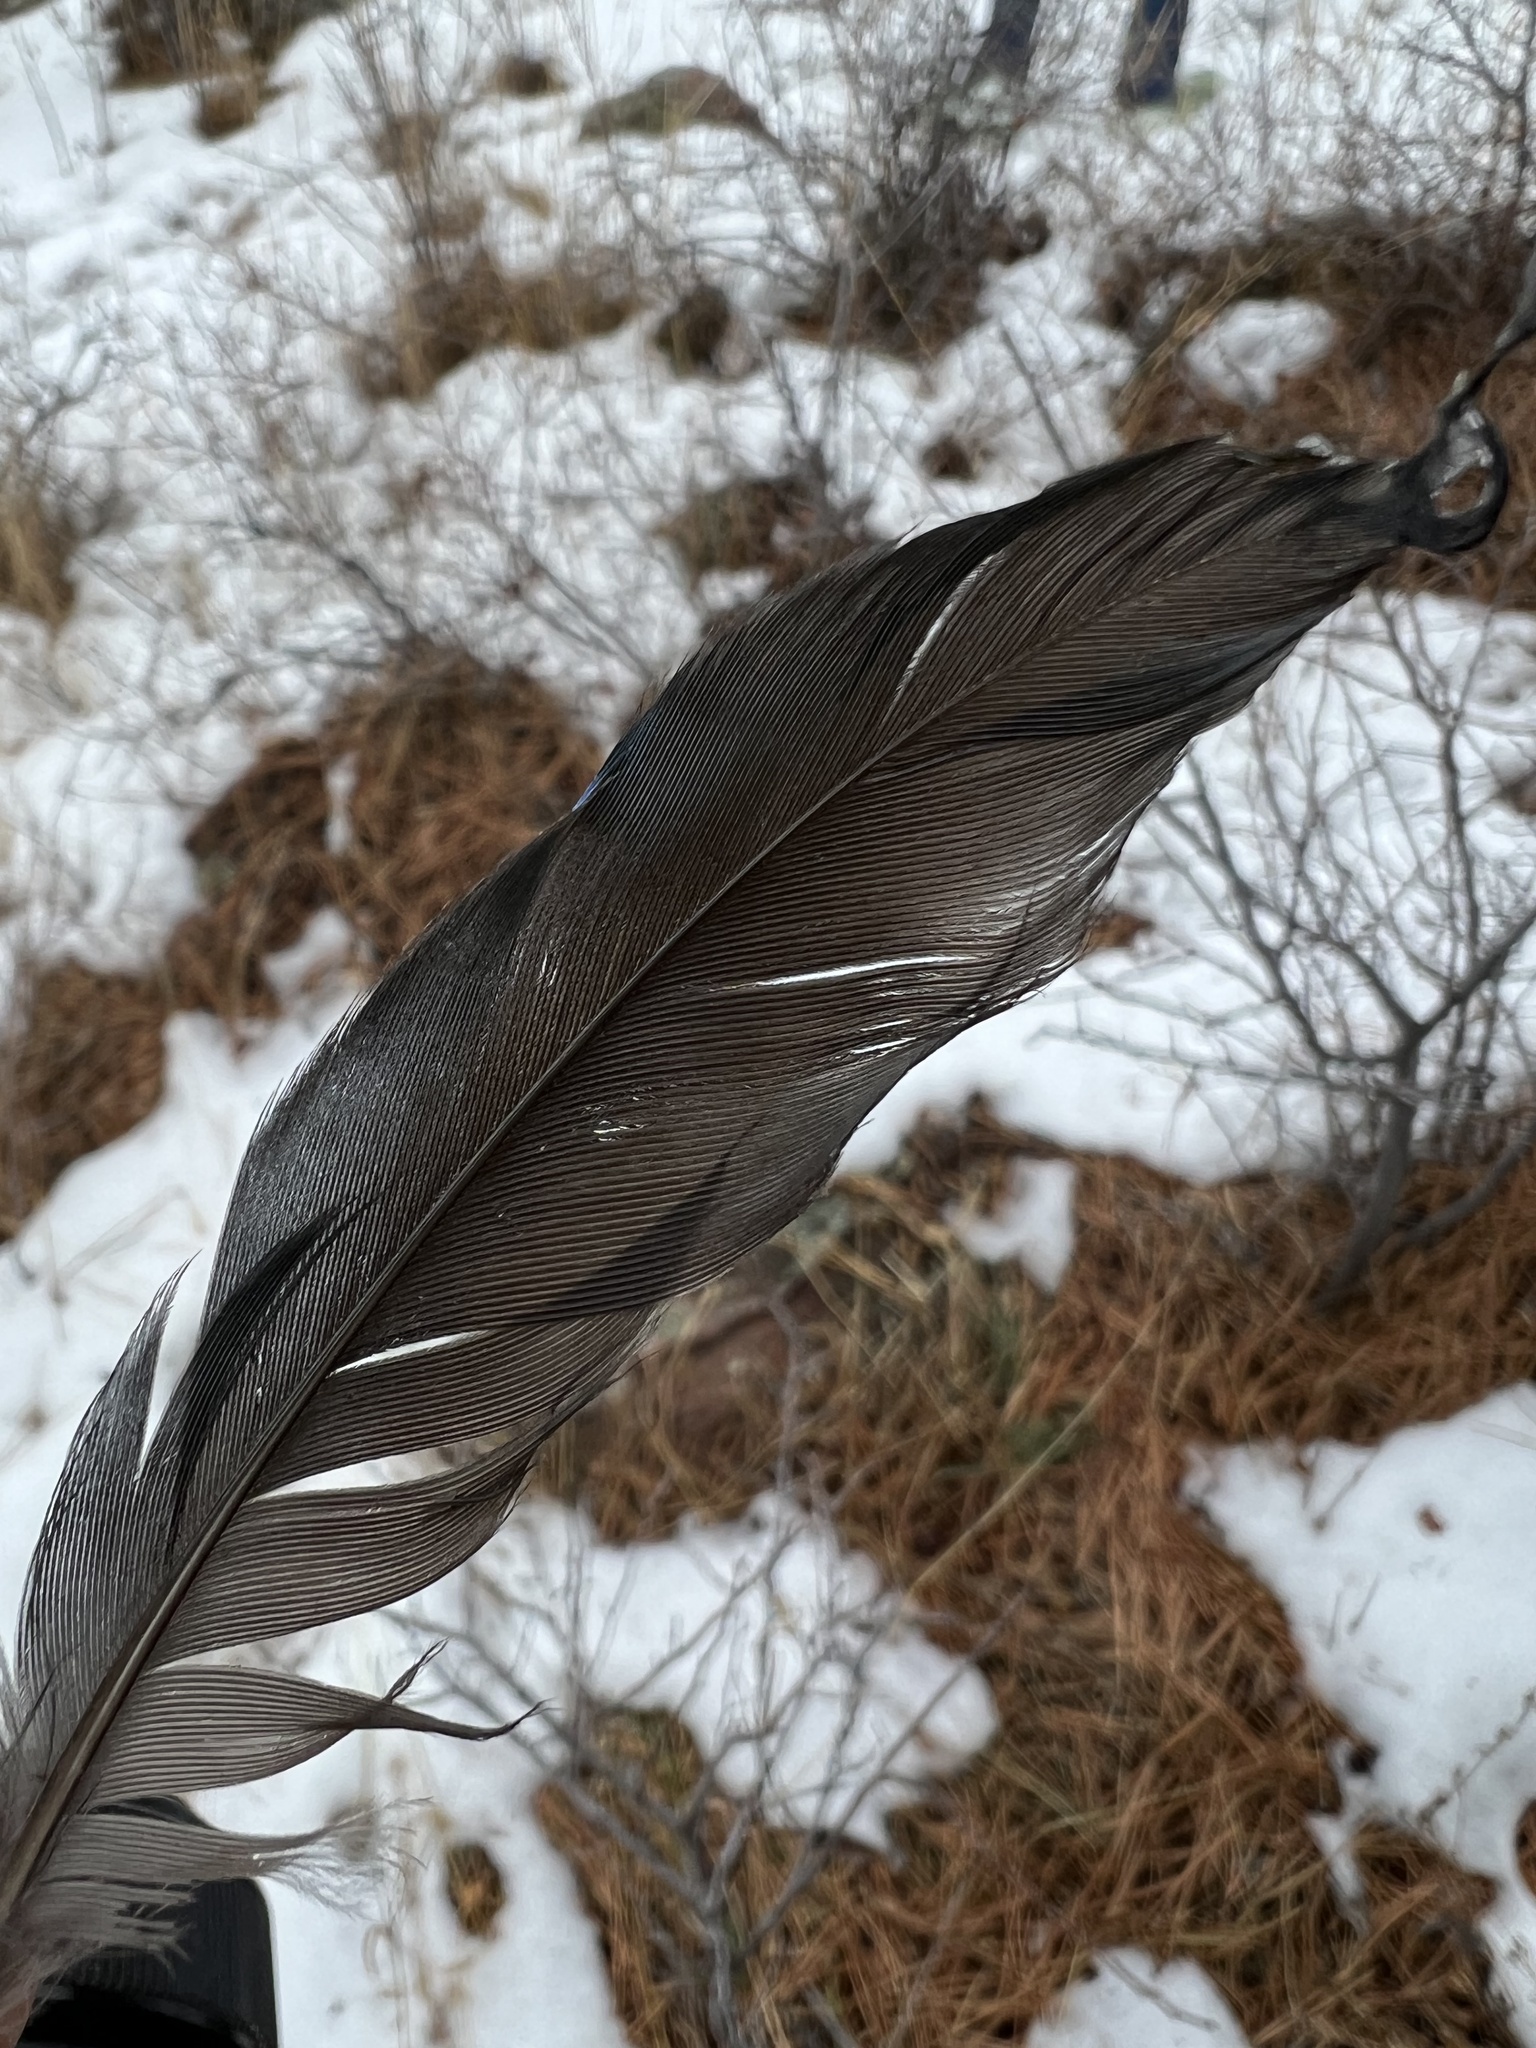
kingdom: Animalia
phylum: Chordata
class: Aves
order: Passeriformes
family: Corvidae
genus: Cyanocitta
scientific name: Cyanocitta stelleri
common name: Steller's jay
